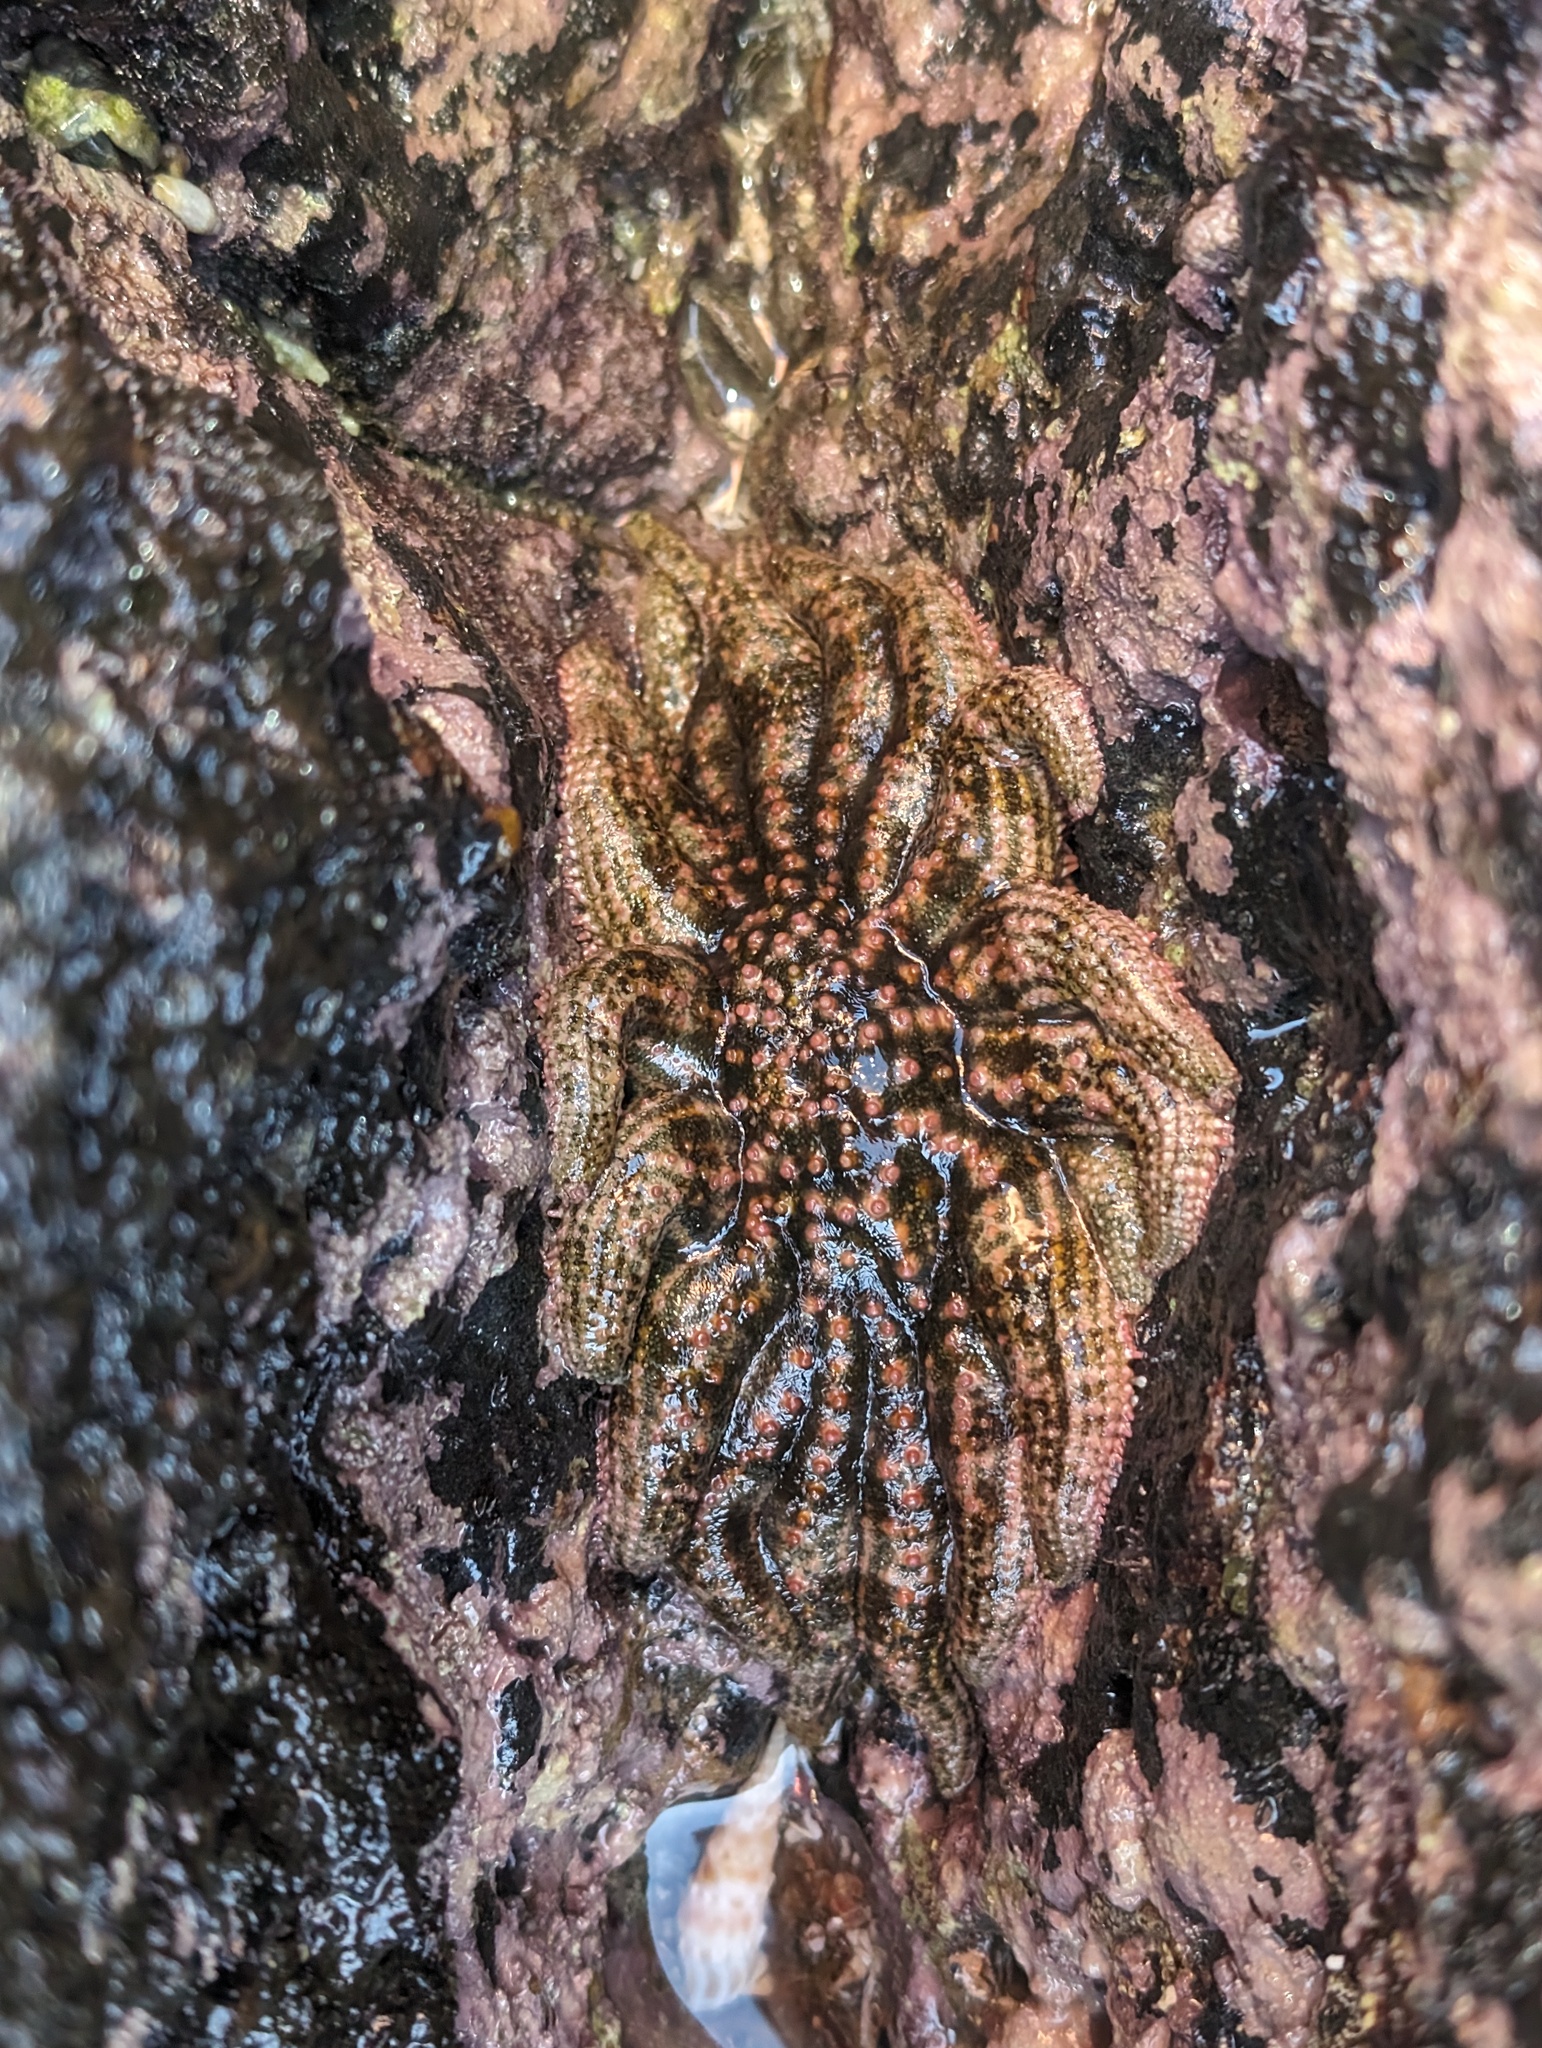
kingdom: Animalia
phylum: Echinodermata
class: Asteroidea
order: Forcipulatida
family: Heliasteridae
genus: Heliaster
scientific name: Heliaster kubiniji
